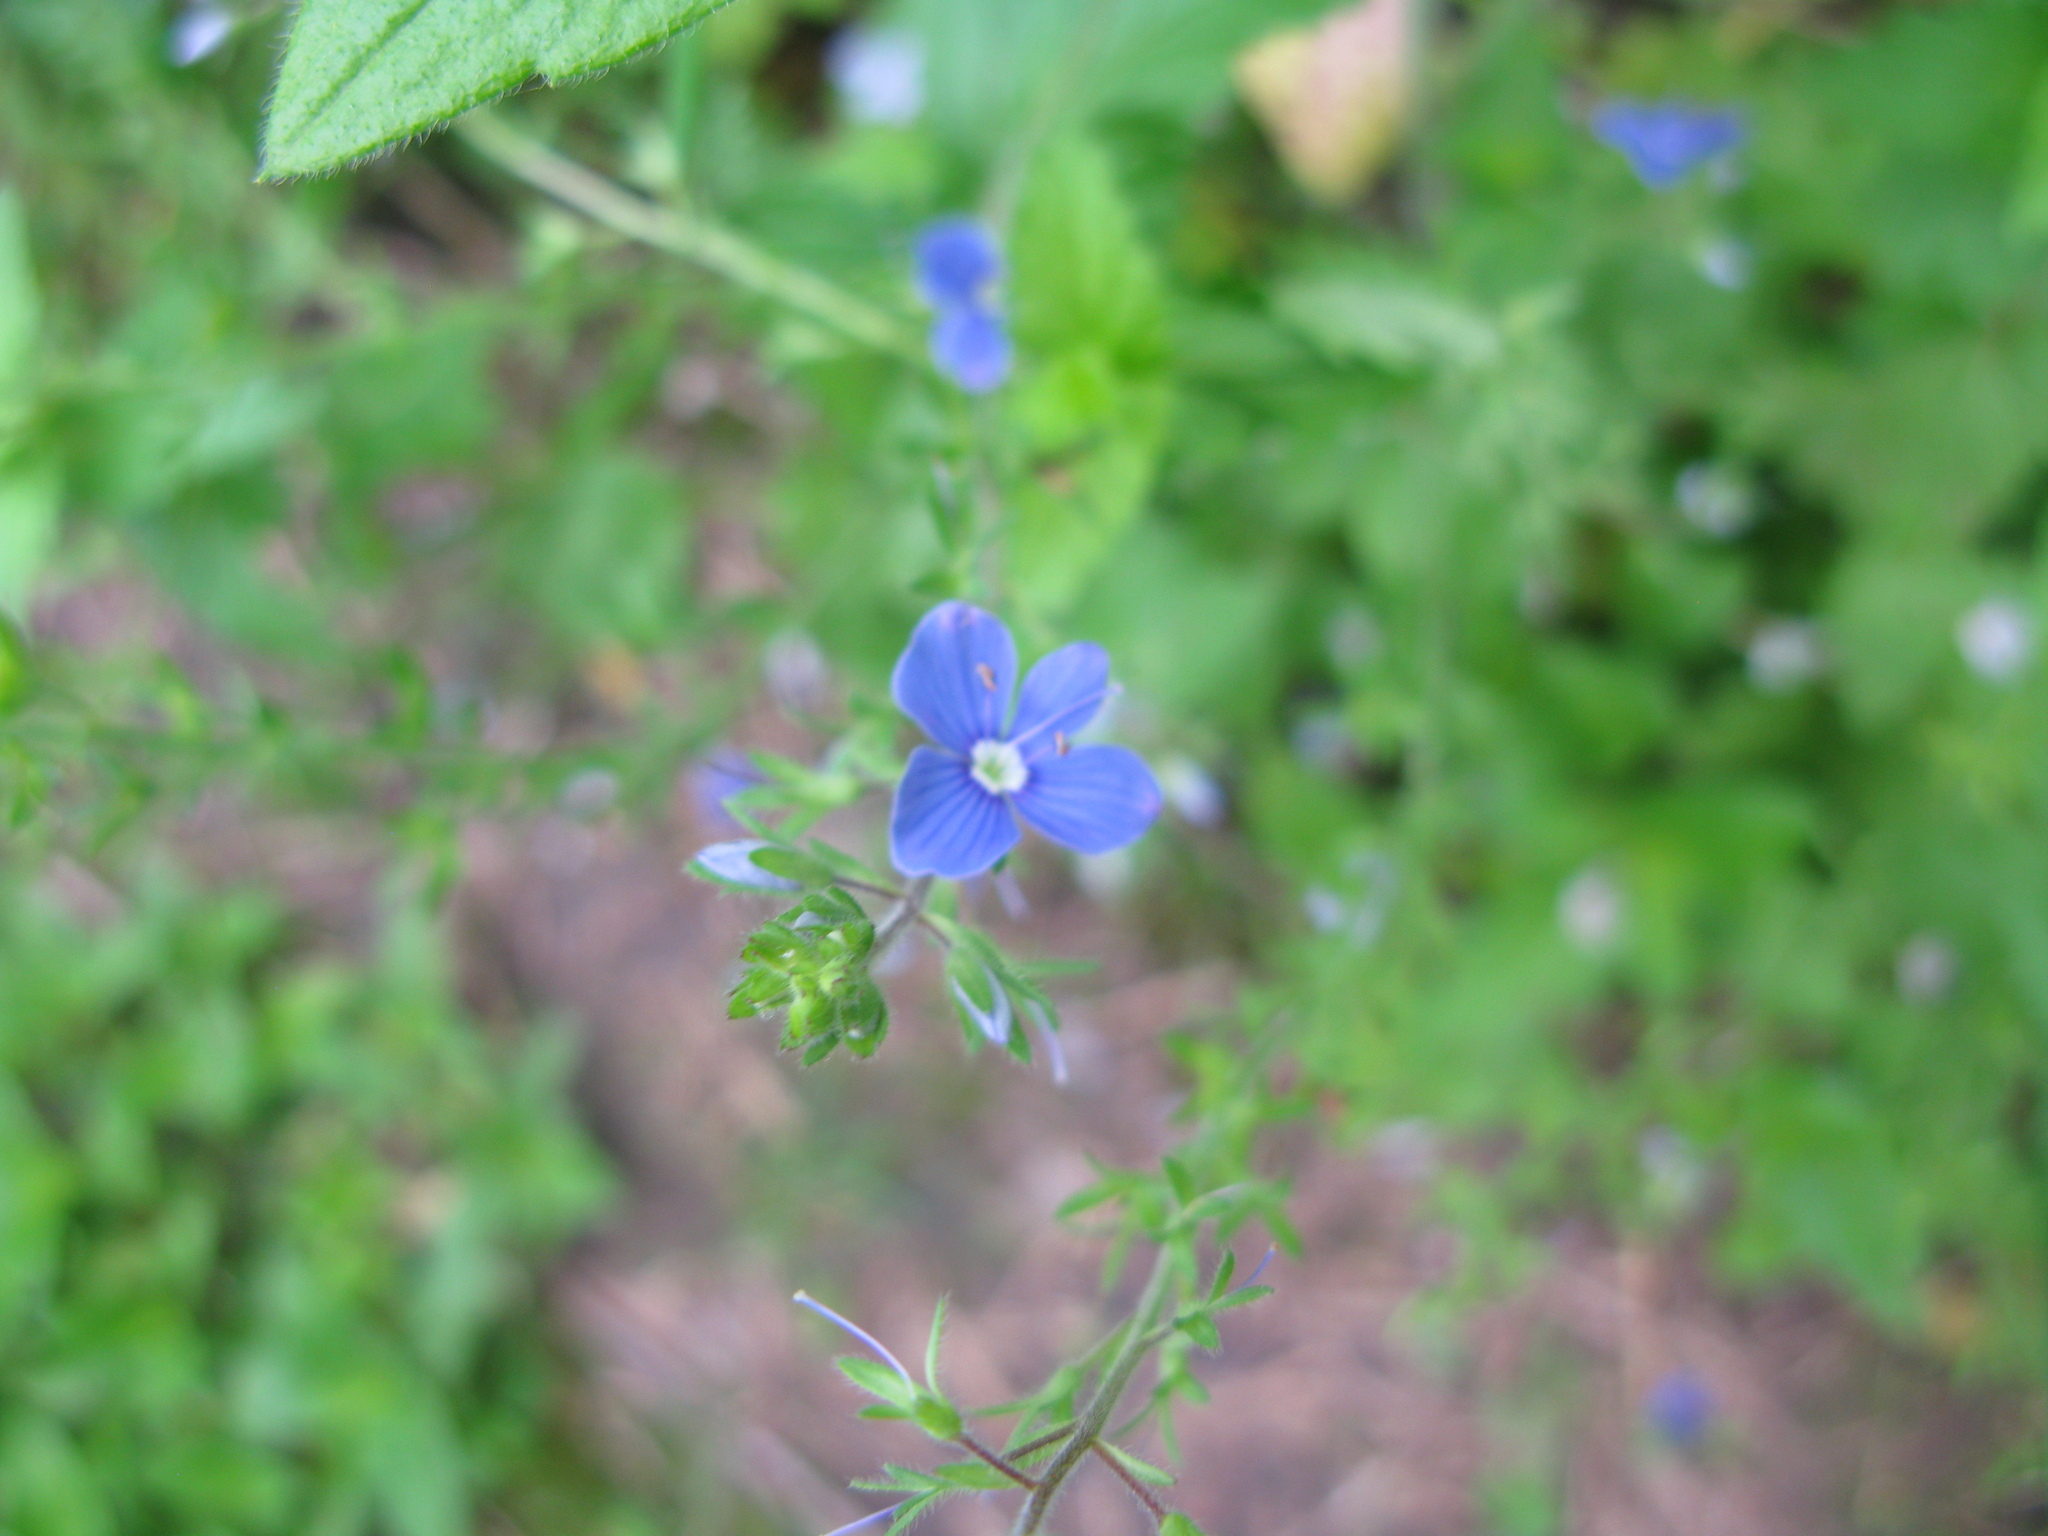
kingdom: Plantae
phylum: Tracheophyta
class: Magnoliopsida
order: Lamiales
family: Plantaginaceae
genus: Veronica
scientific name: Veronica chamaedrys
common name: Germander speedwell
